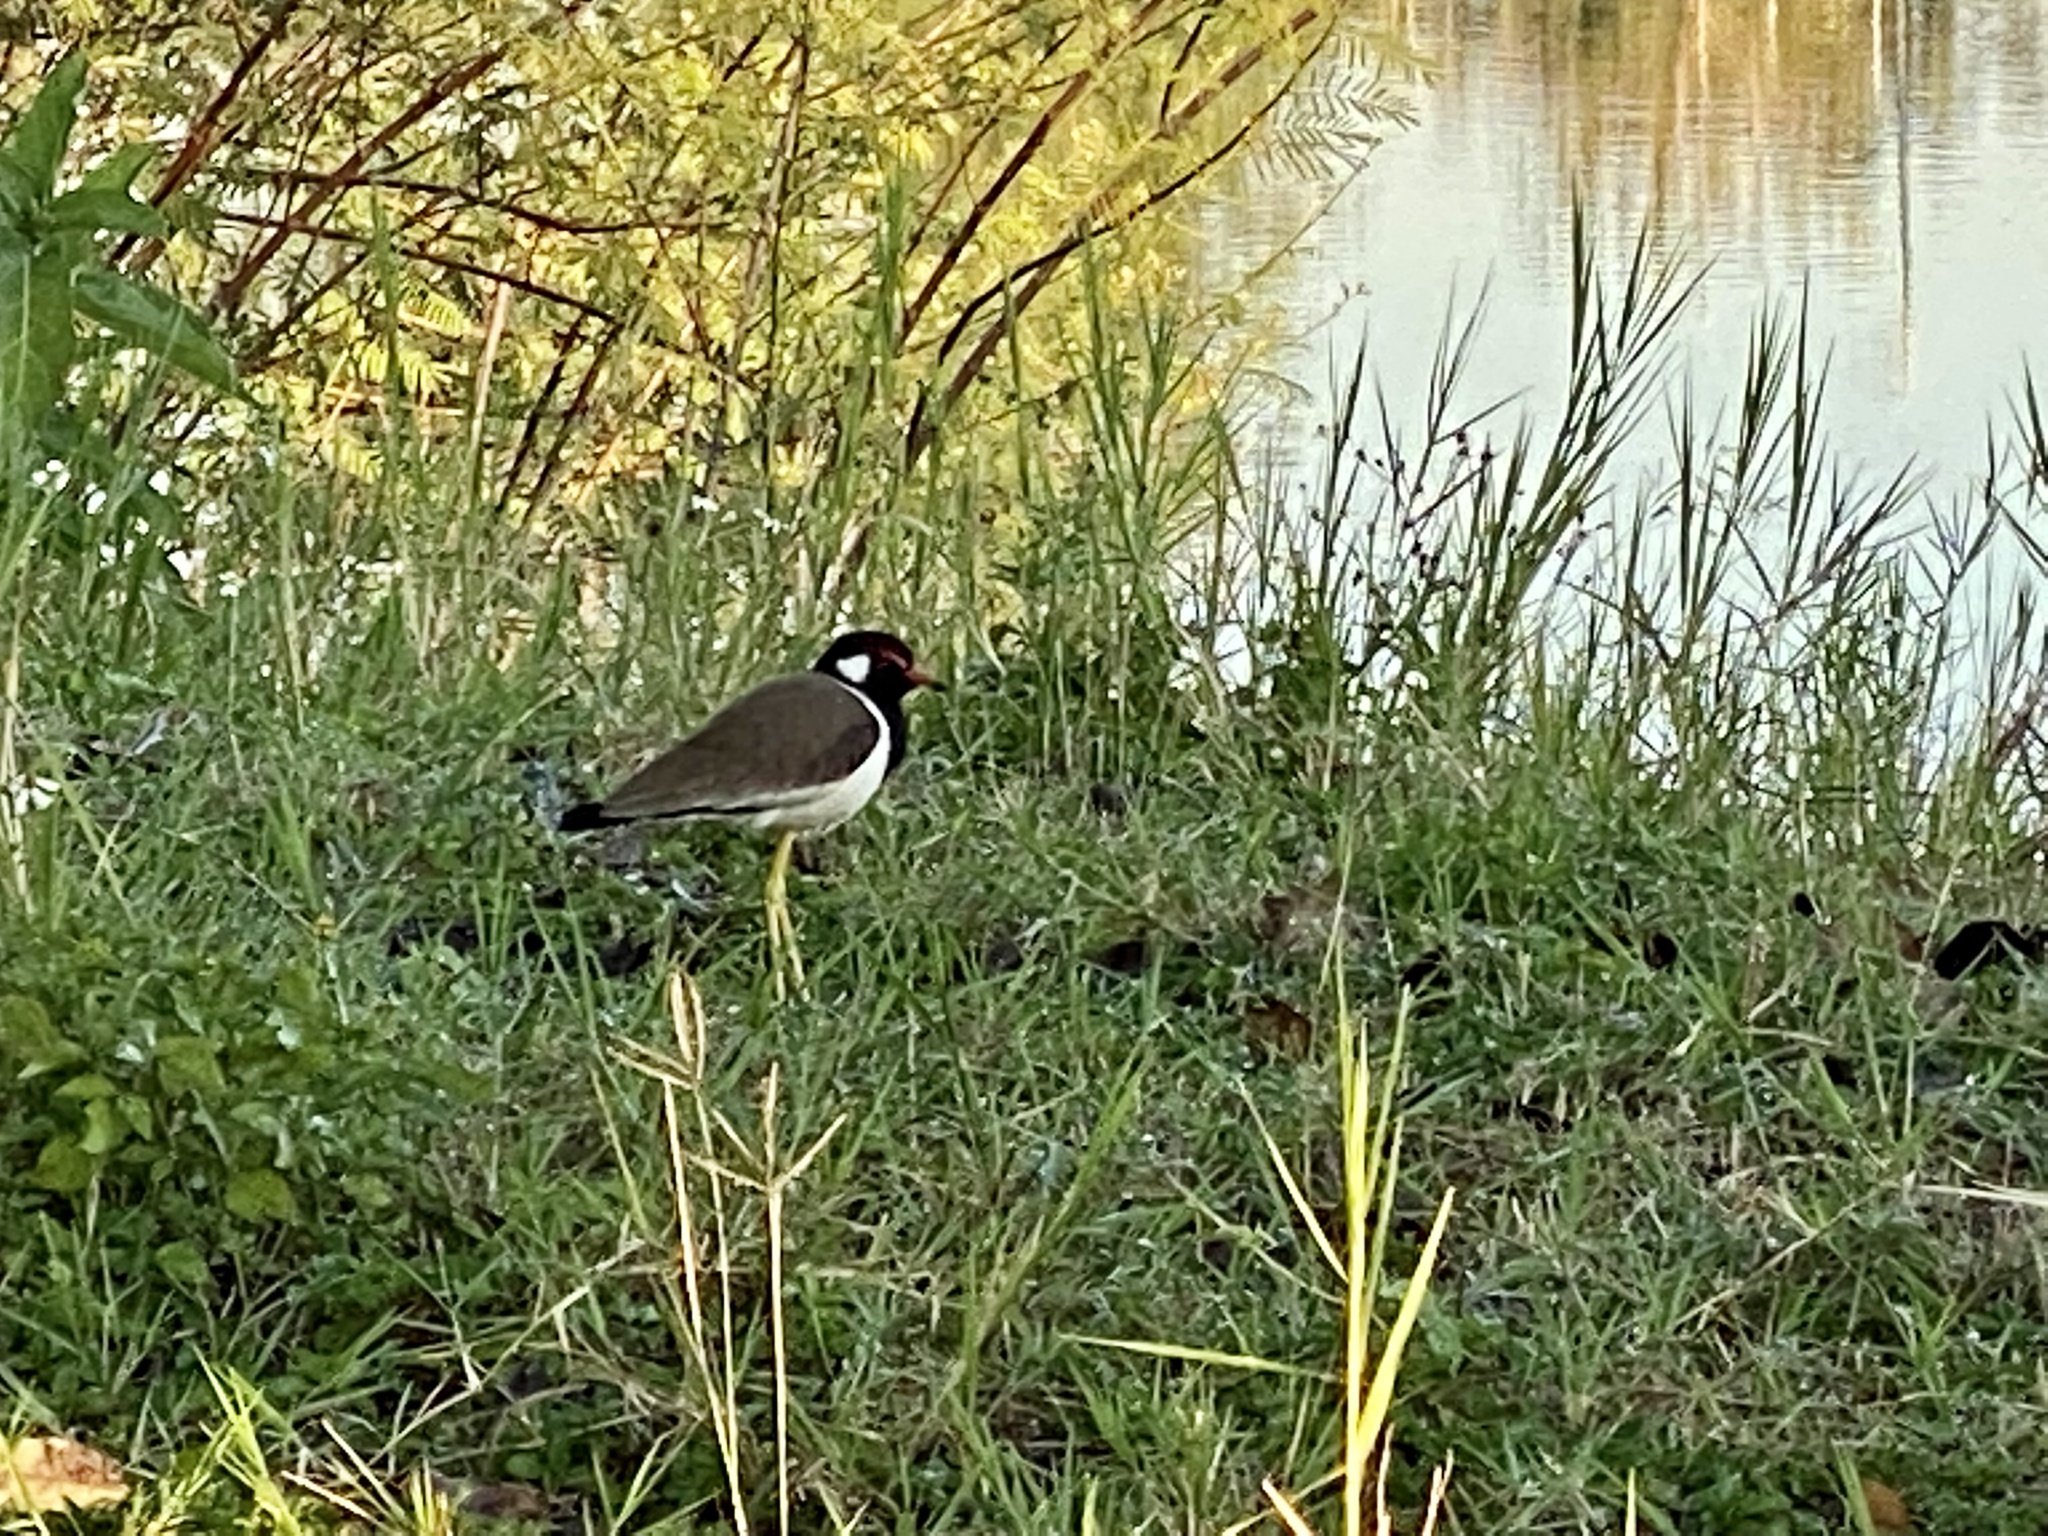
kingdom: Animalia
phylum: Chordata
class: Aves
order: Charadriiformes
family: Charadriidae
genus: Vanellus
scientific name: Vanellus indicus
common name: Red-wattled lapwing
